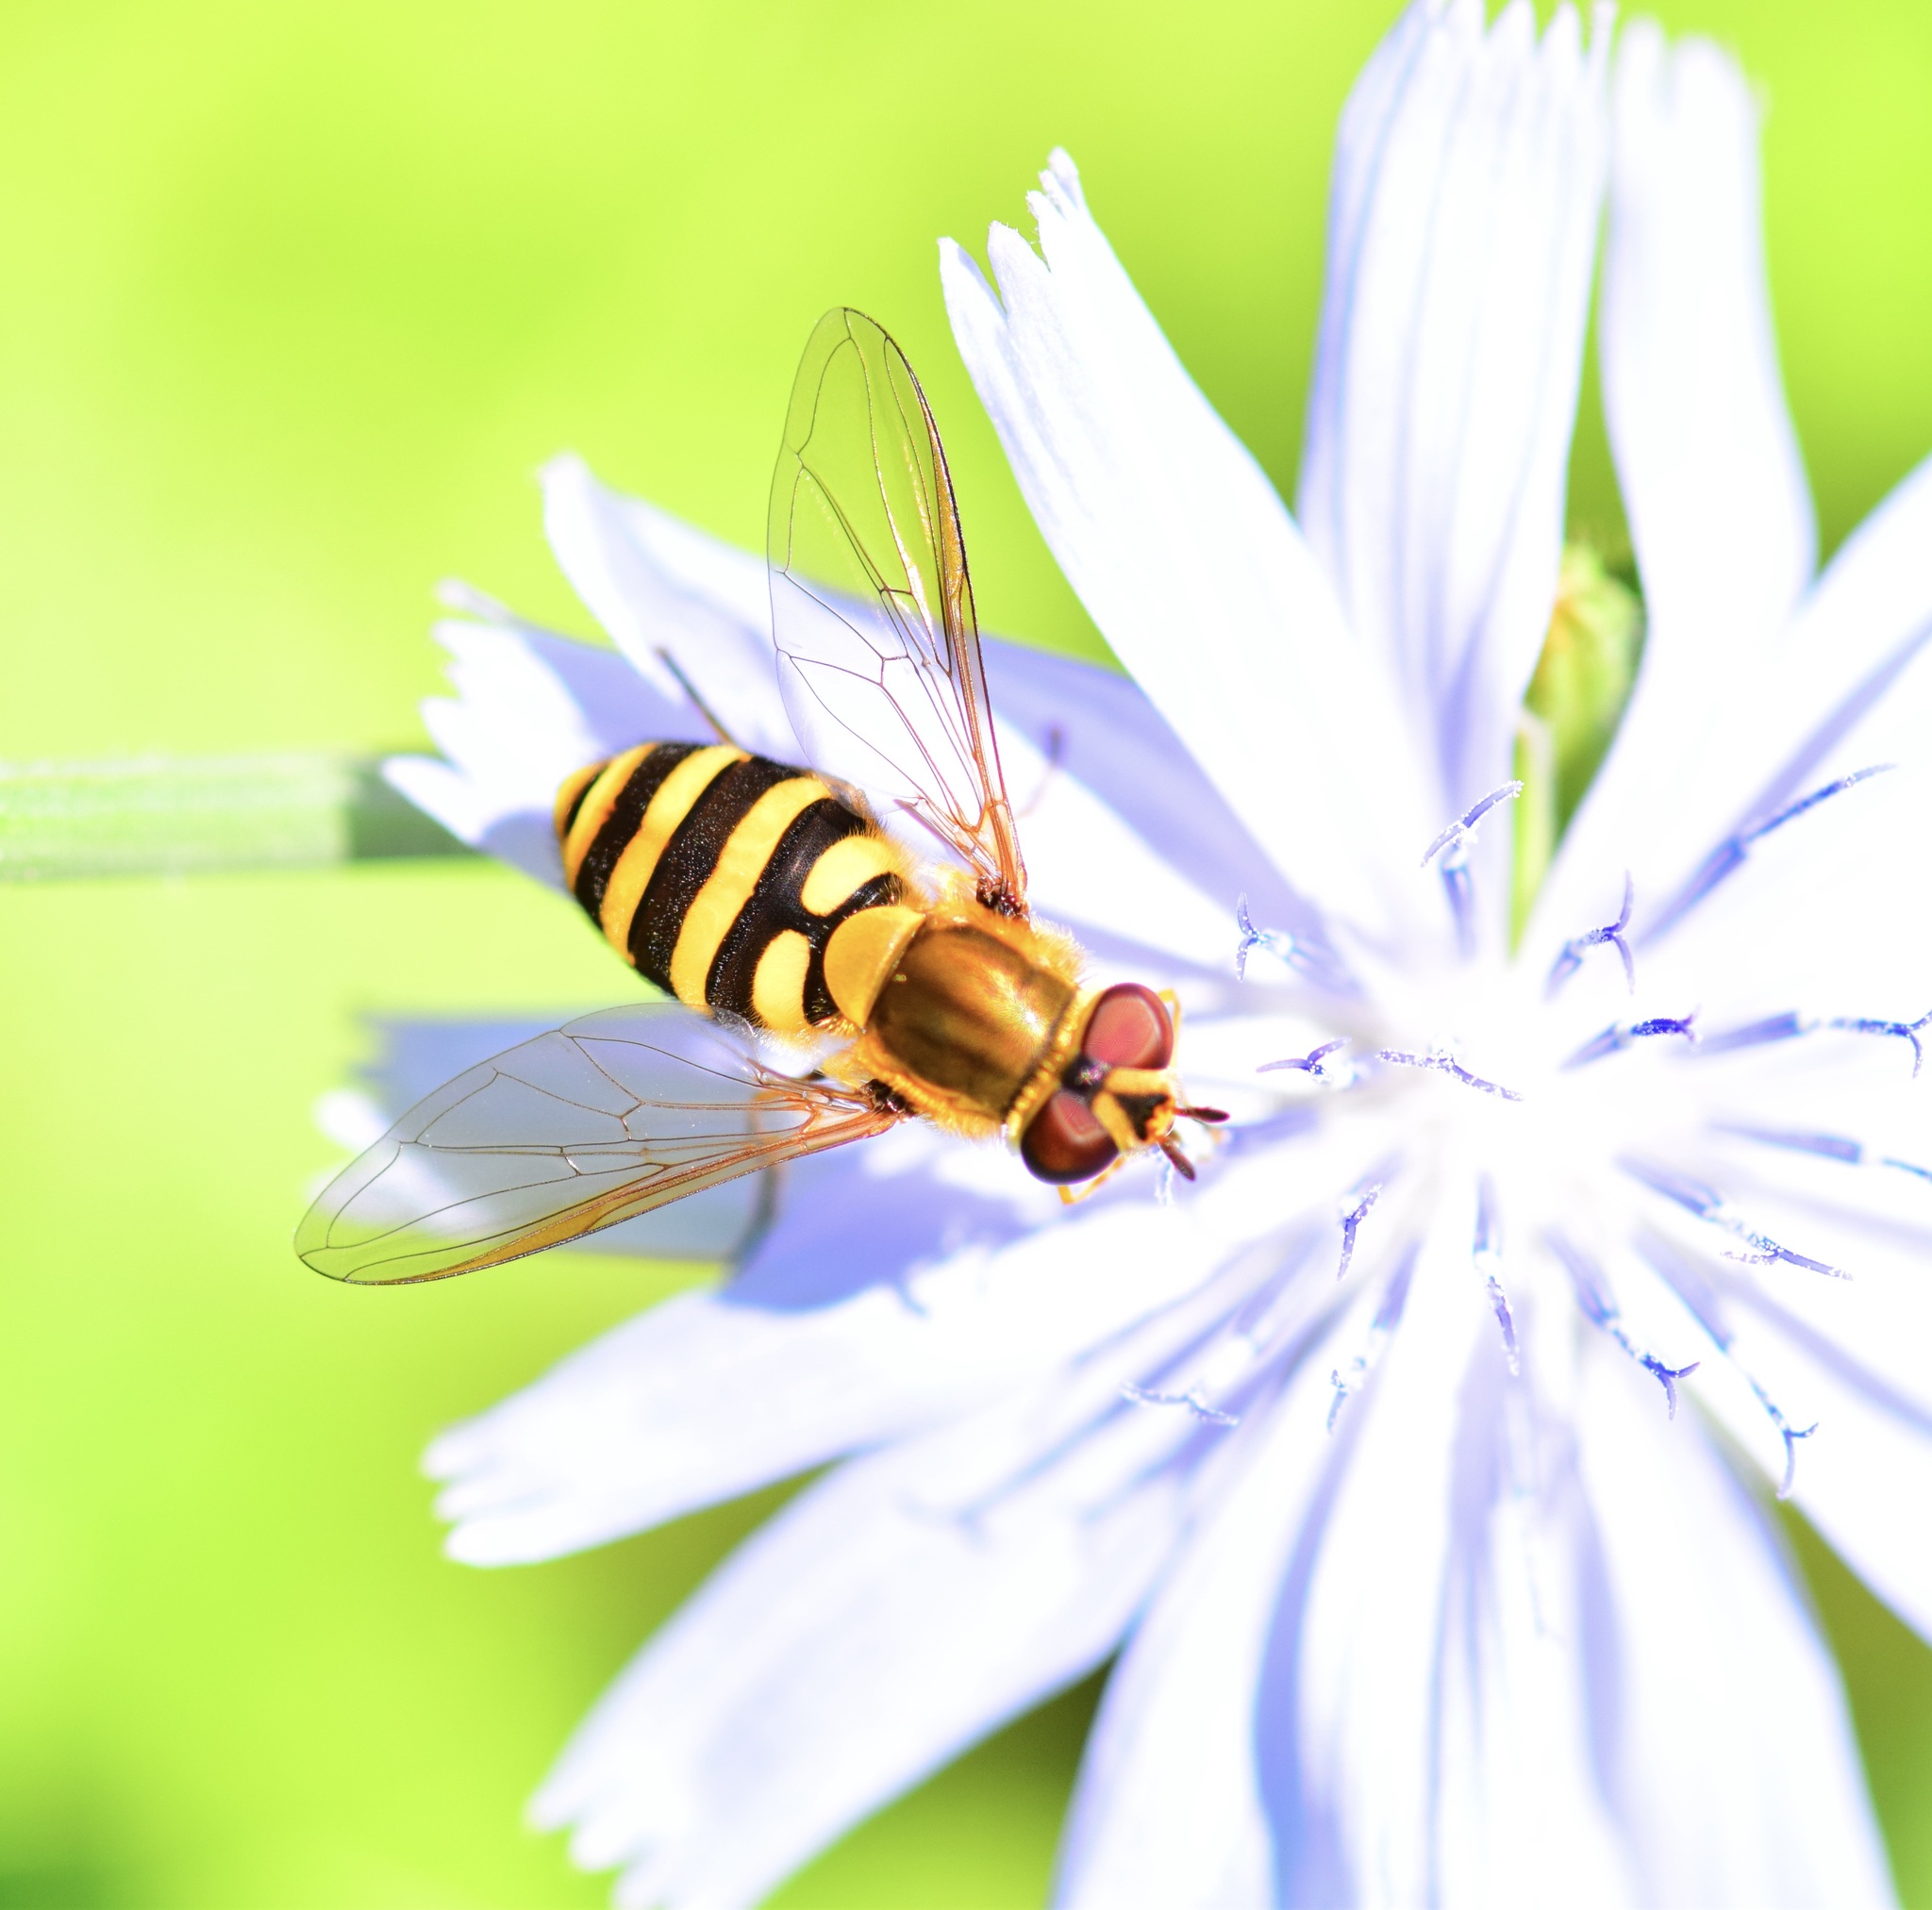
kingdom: Animalia
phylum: Arthropoda
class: Insecta
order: Diptera
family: Syrphidae
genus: Syrphus
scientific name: Syrphus
